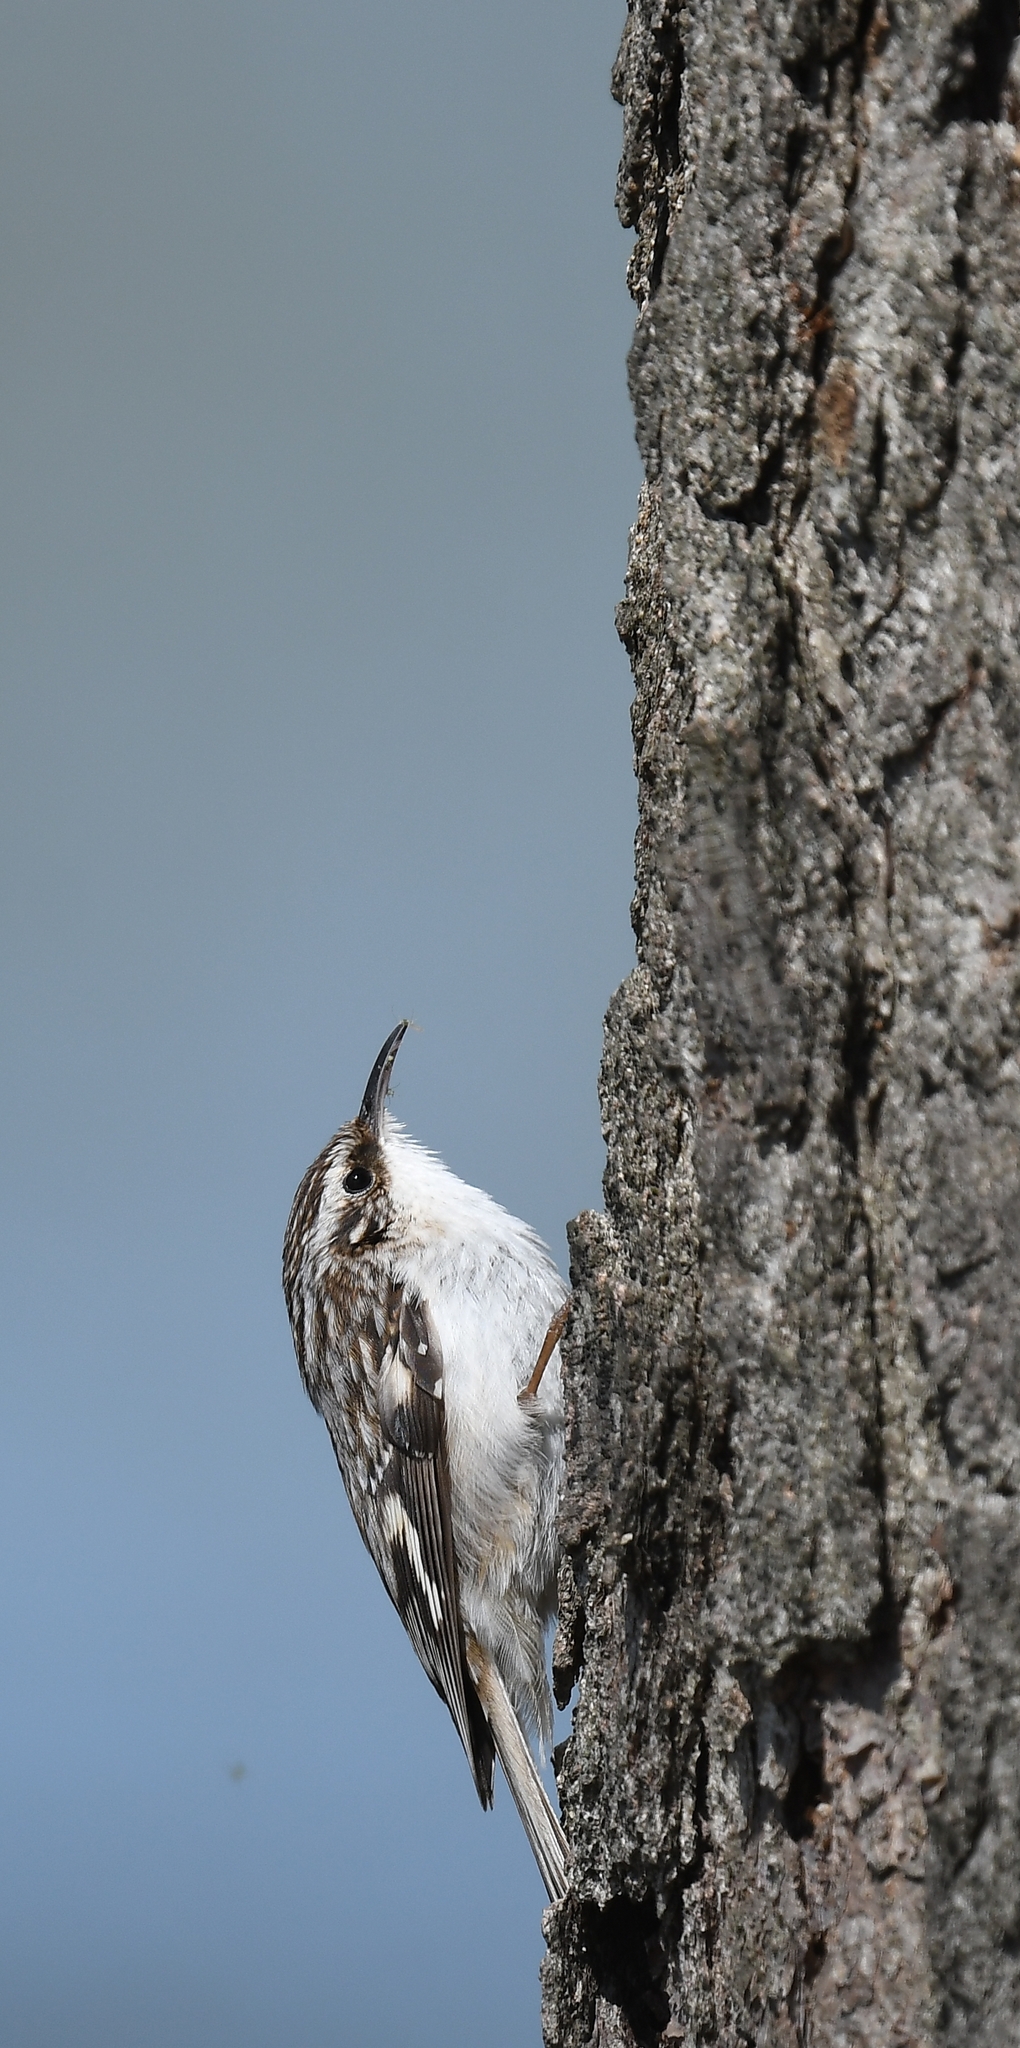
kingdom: Animalia
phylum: Chordata
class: Aves
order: Passeriformes
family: Certhiidae
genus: Certhia
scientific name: Certhia americana
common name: Brown creeper
